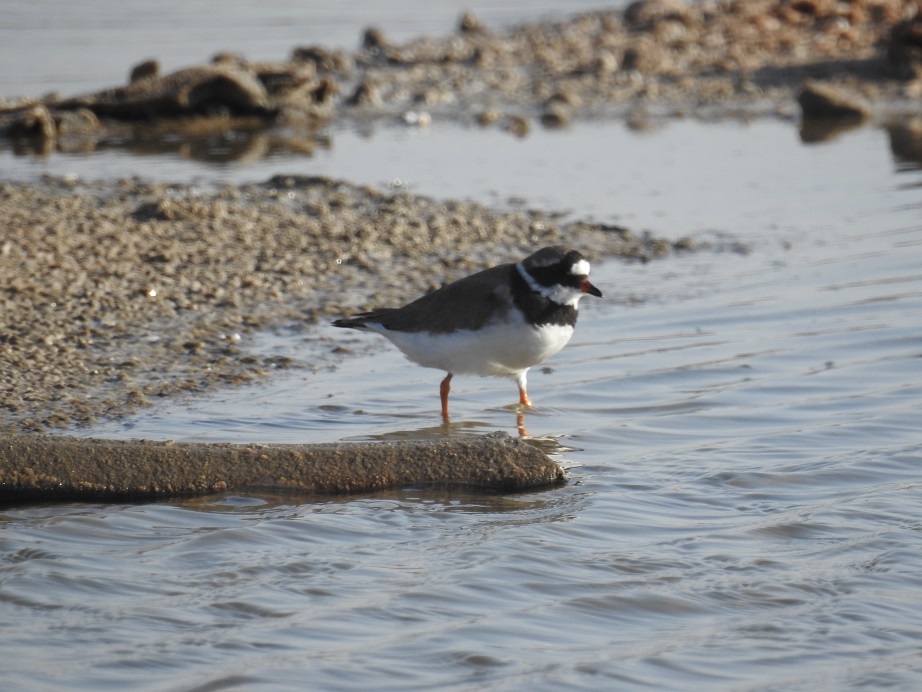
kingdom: Animalia
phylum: Chordata
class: Aves
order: Charadriiformes
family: Charadriidae
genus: Charadrius
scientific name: Charadrius hiaticula
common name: Common ringed plover
